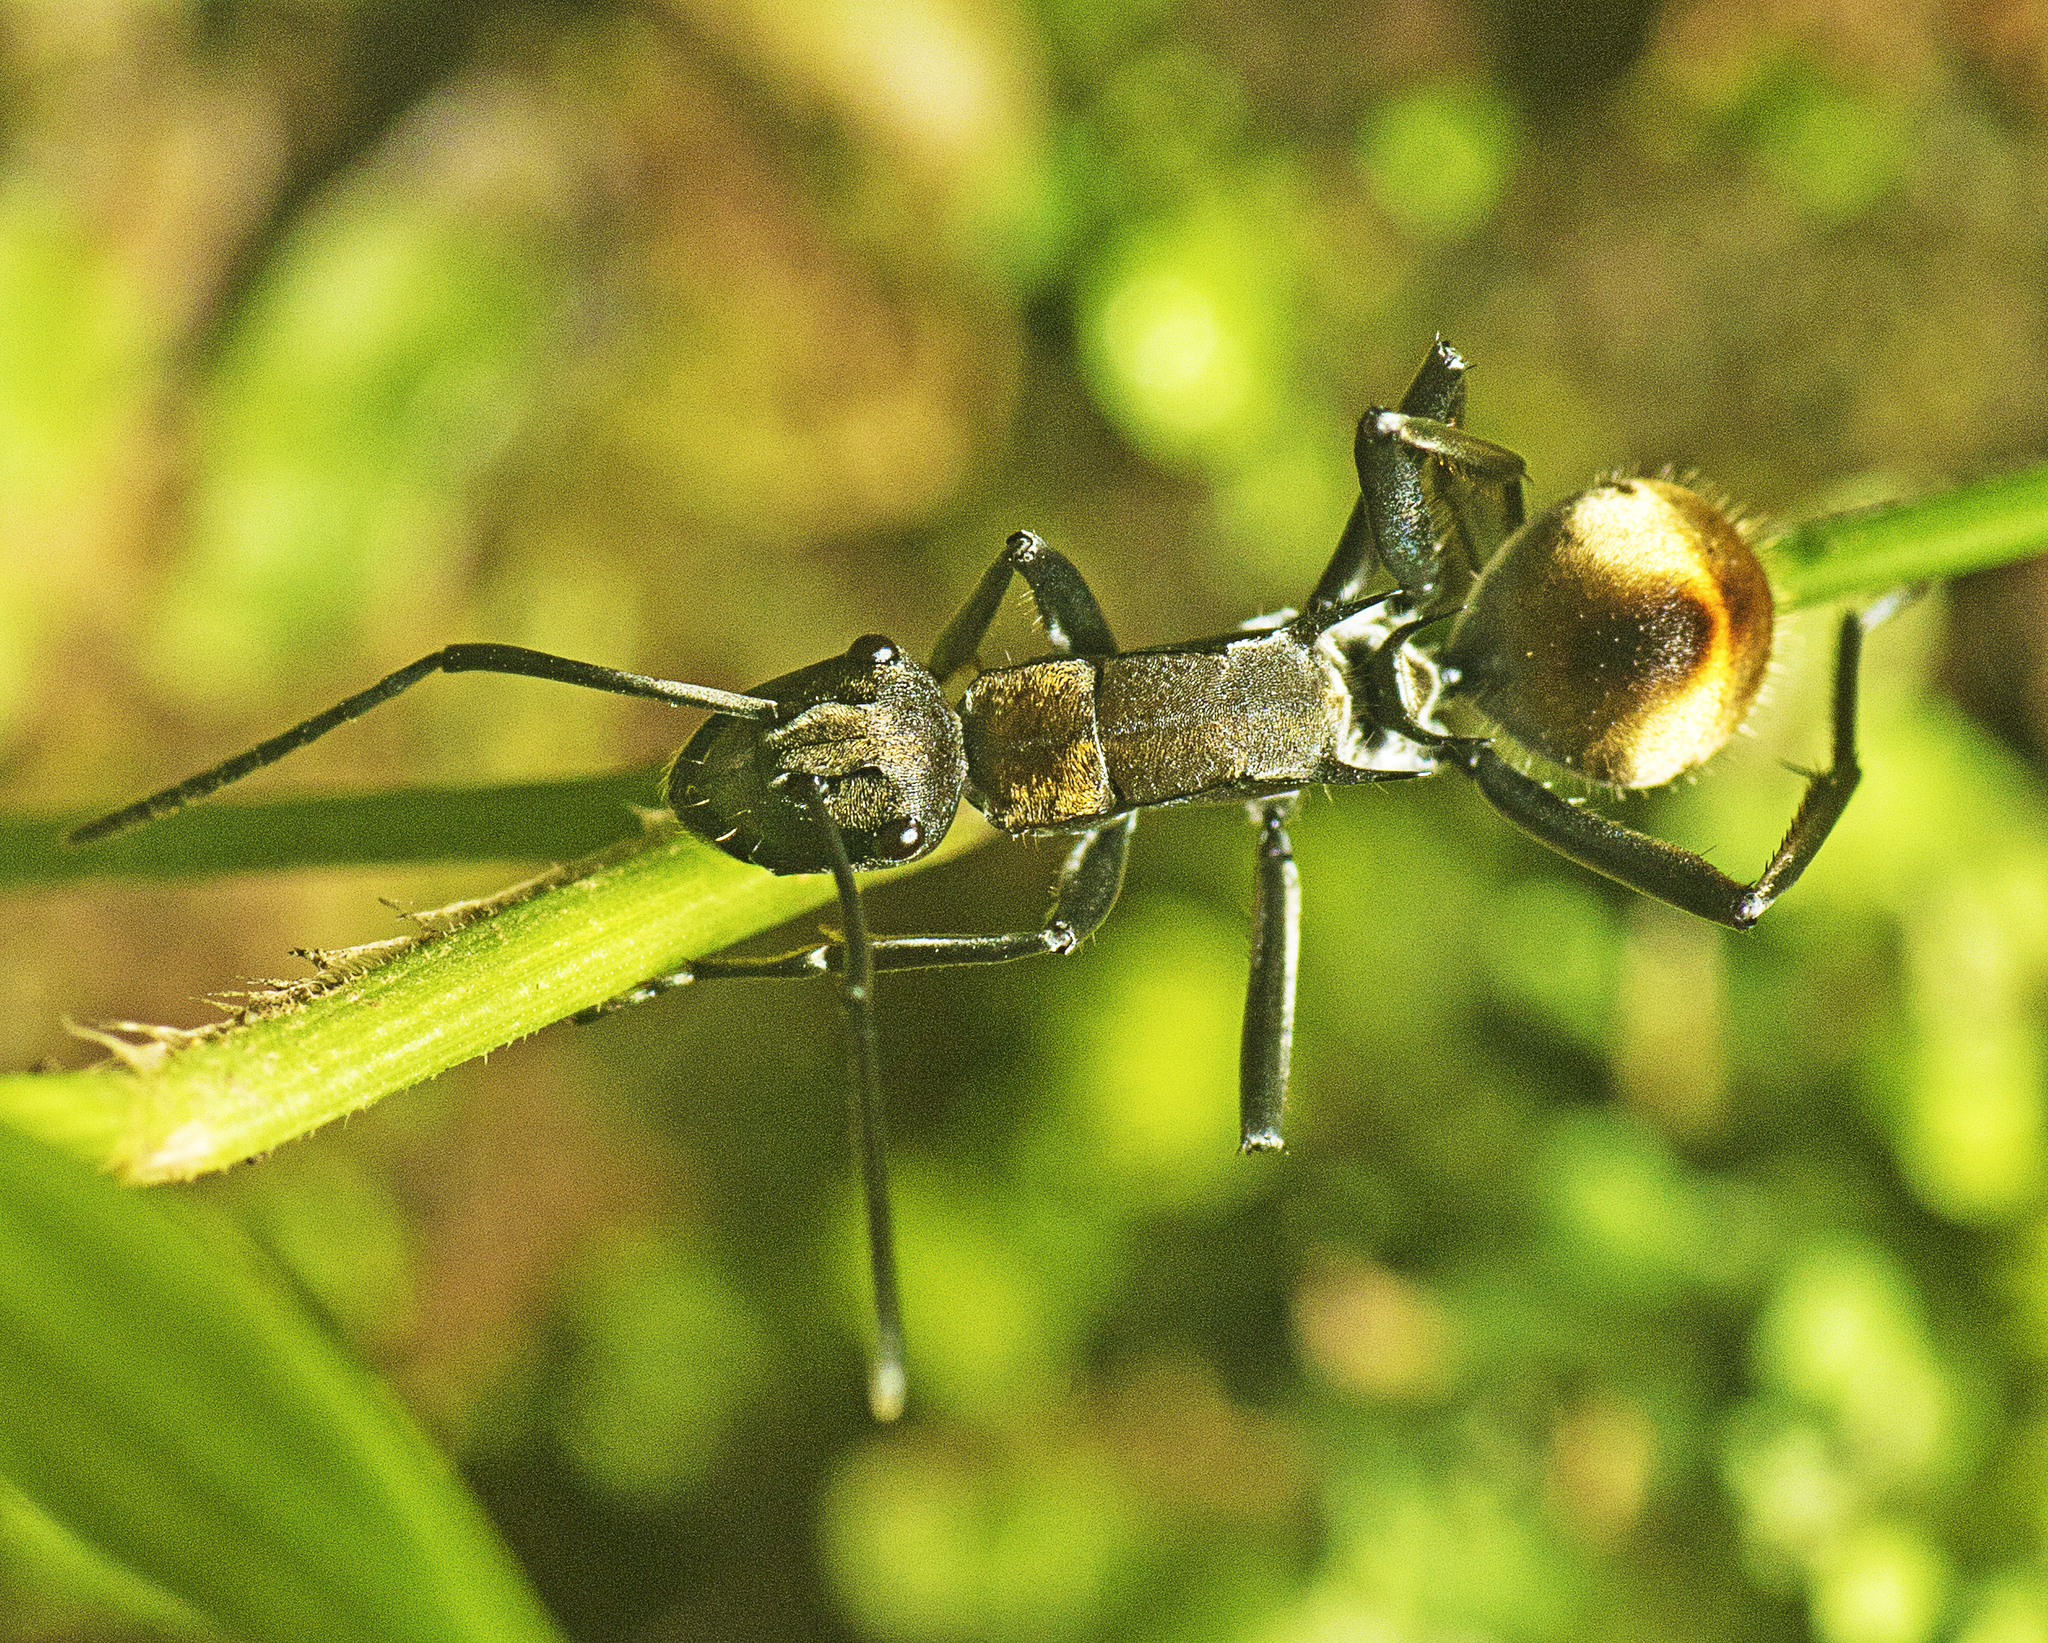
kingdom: Animalia
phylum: Arthropoda
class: Insecta
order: Hymenoptera
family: Formicidae
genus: Polyrhachis
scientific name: Polyrhachis
